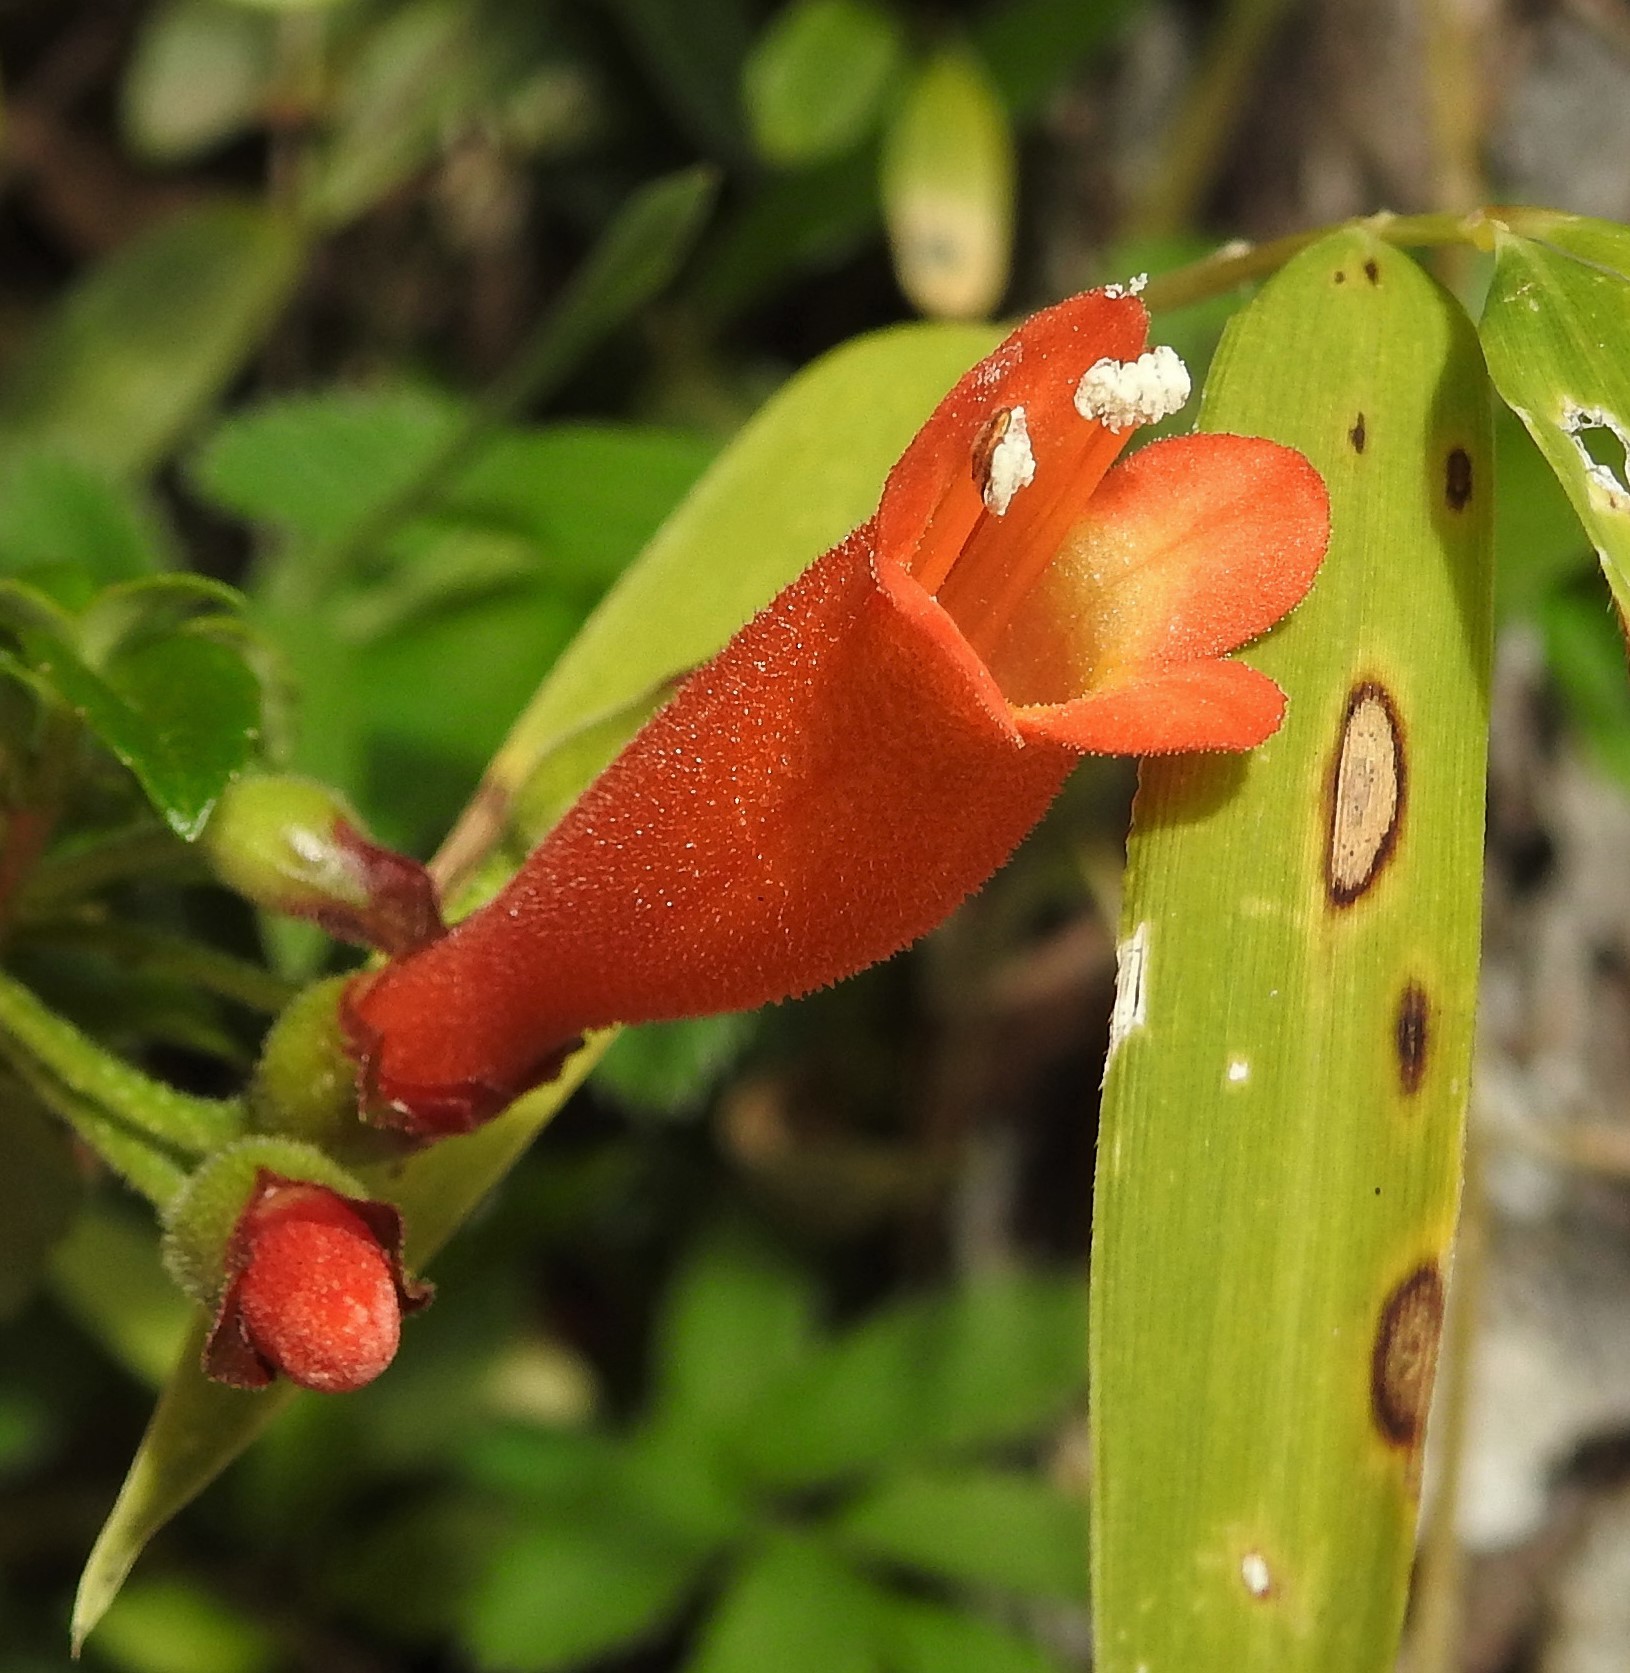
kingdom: Plantae
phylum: Tracheophyta
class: Magnoliopsida
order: Lamiales
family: Gesneriaceae
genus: Mitraria
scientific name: Mitraria coccinea
